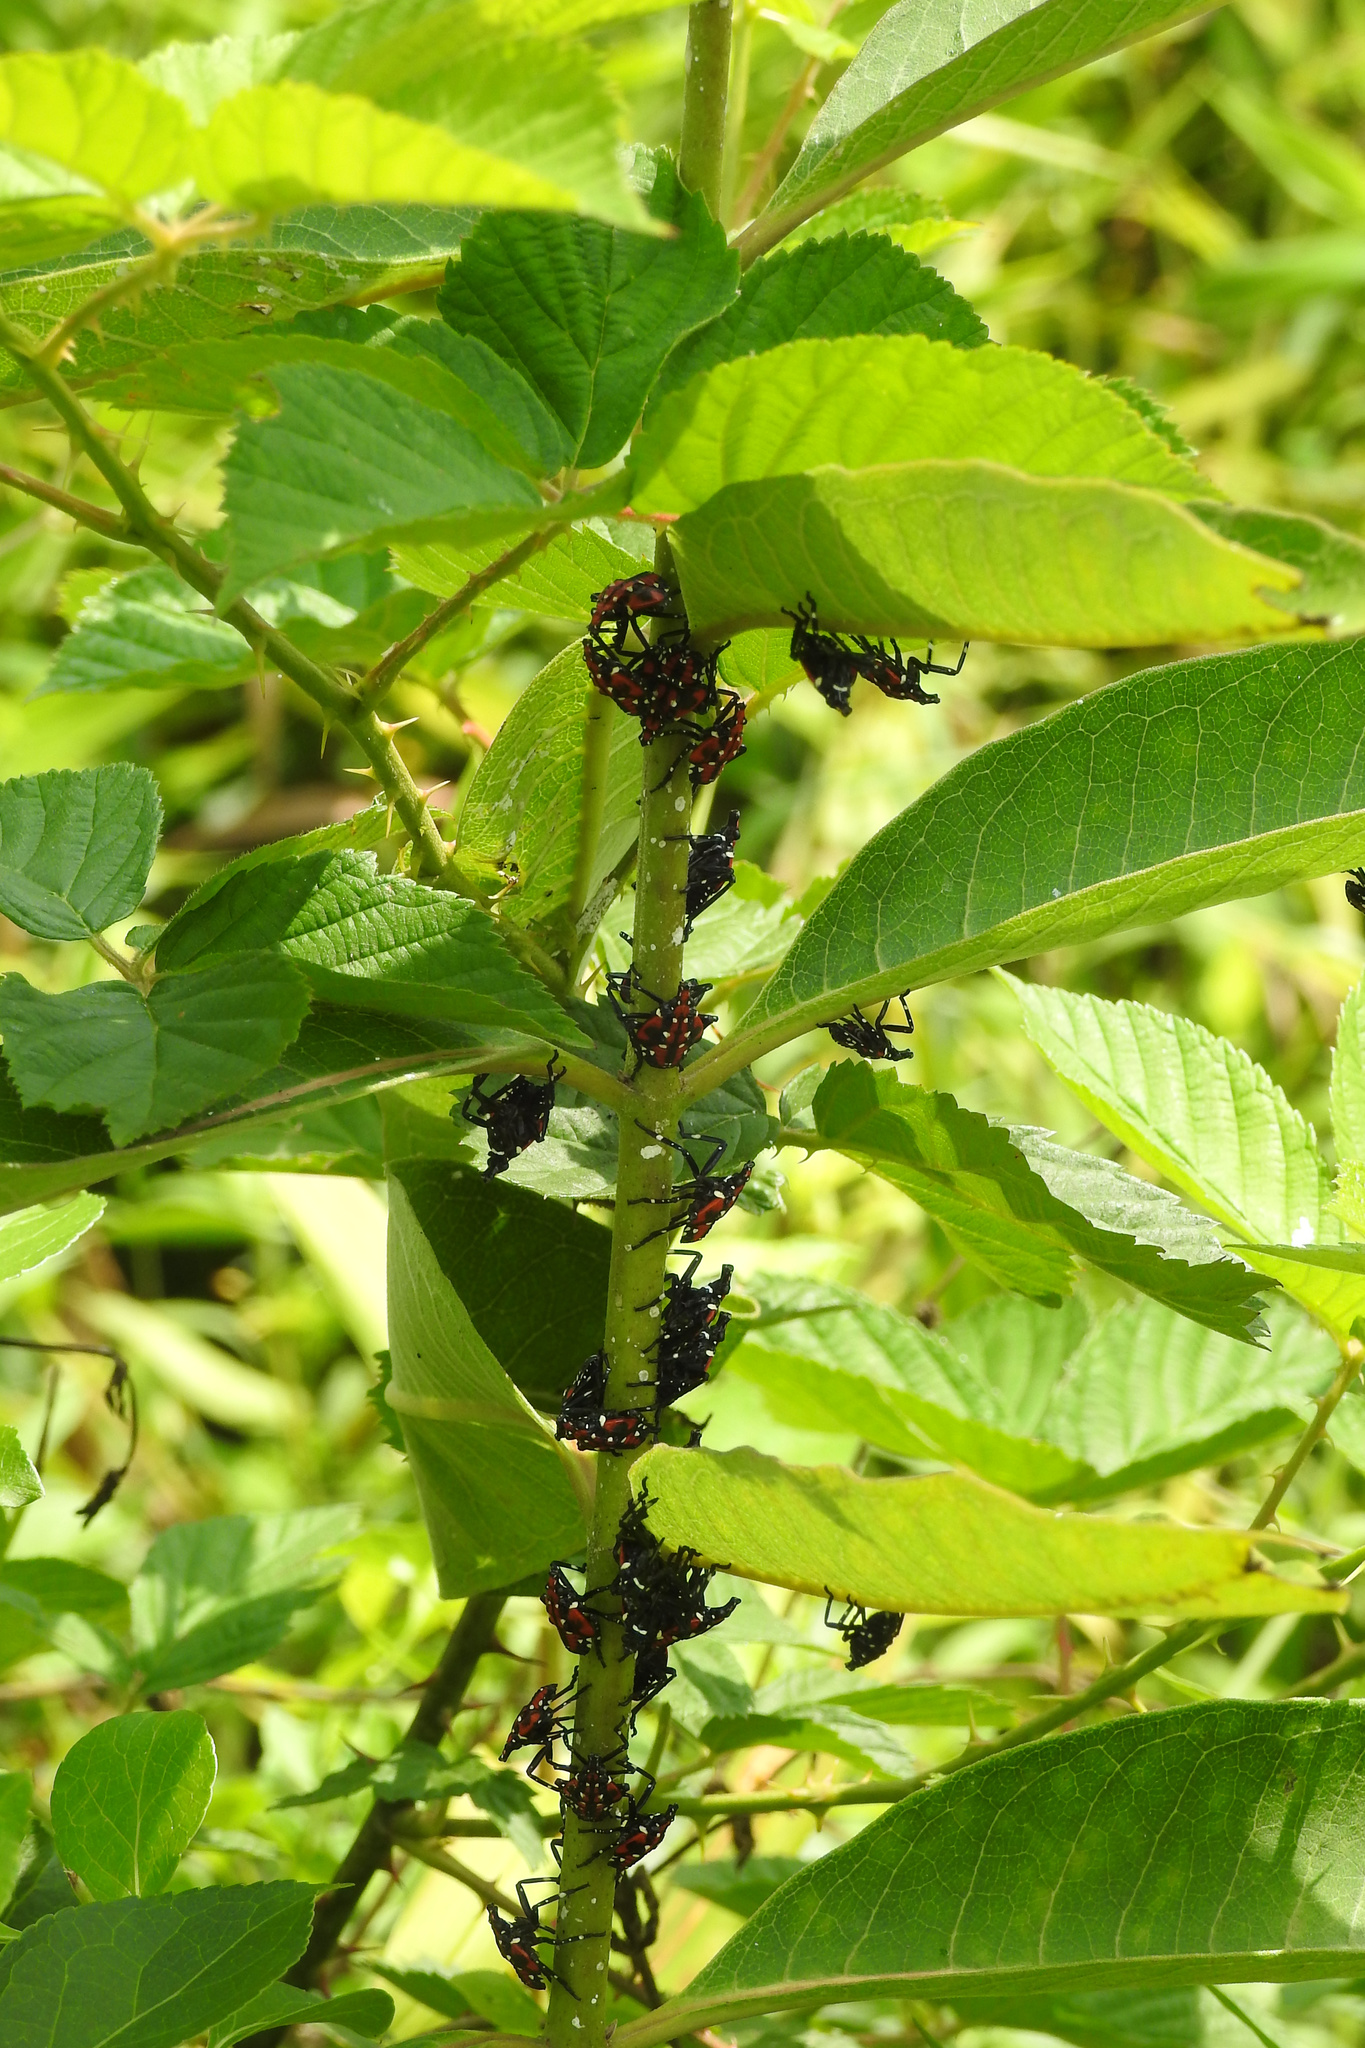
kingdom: Animalia
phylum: Arthropoda
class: Insecta
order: Hemiptera
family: Fulgoridae
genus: Lycorma
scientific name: Lycorma delicatula
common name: Spotted lanternfly
